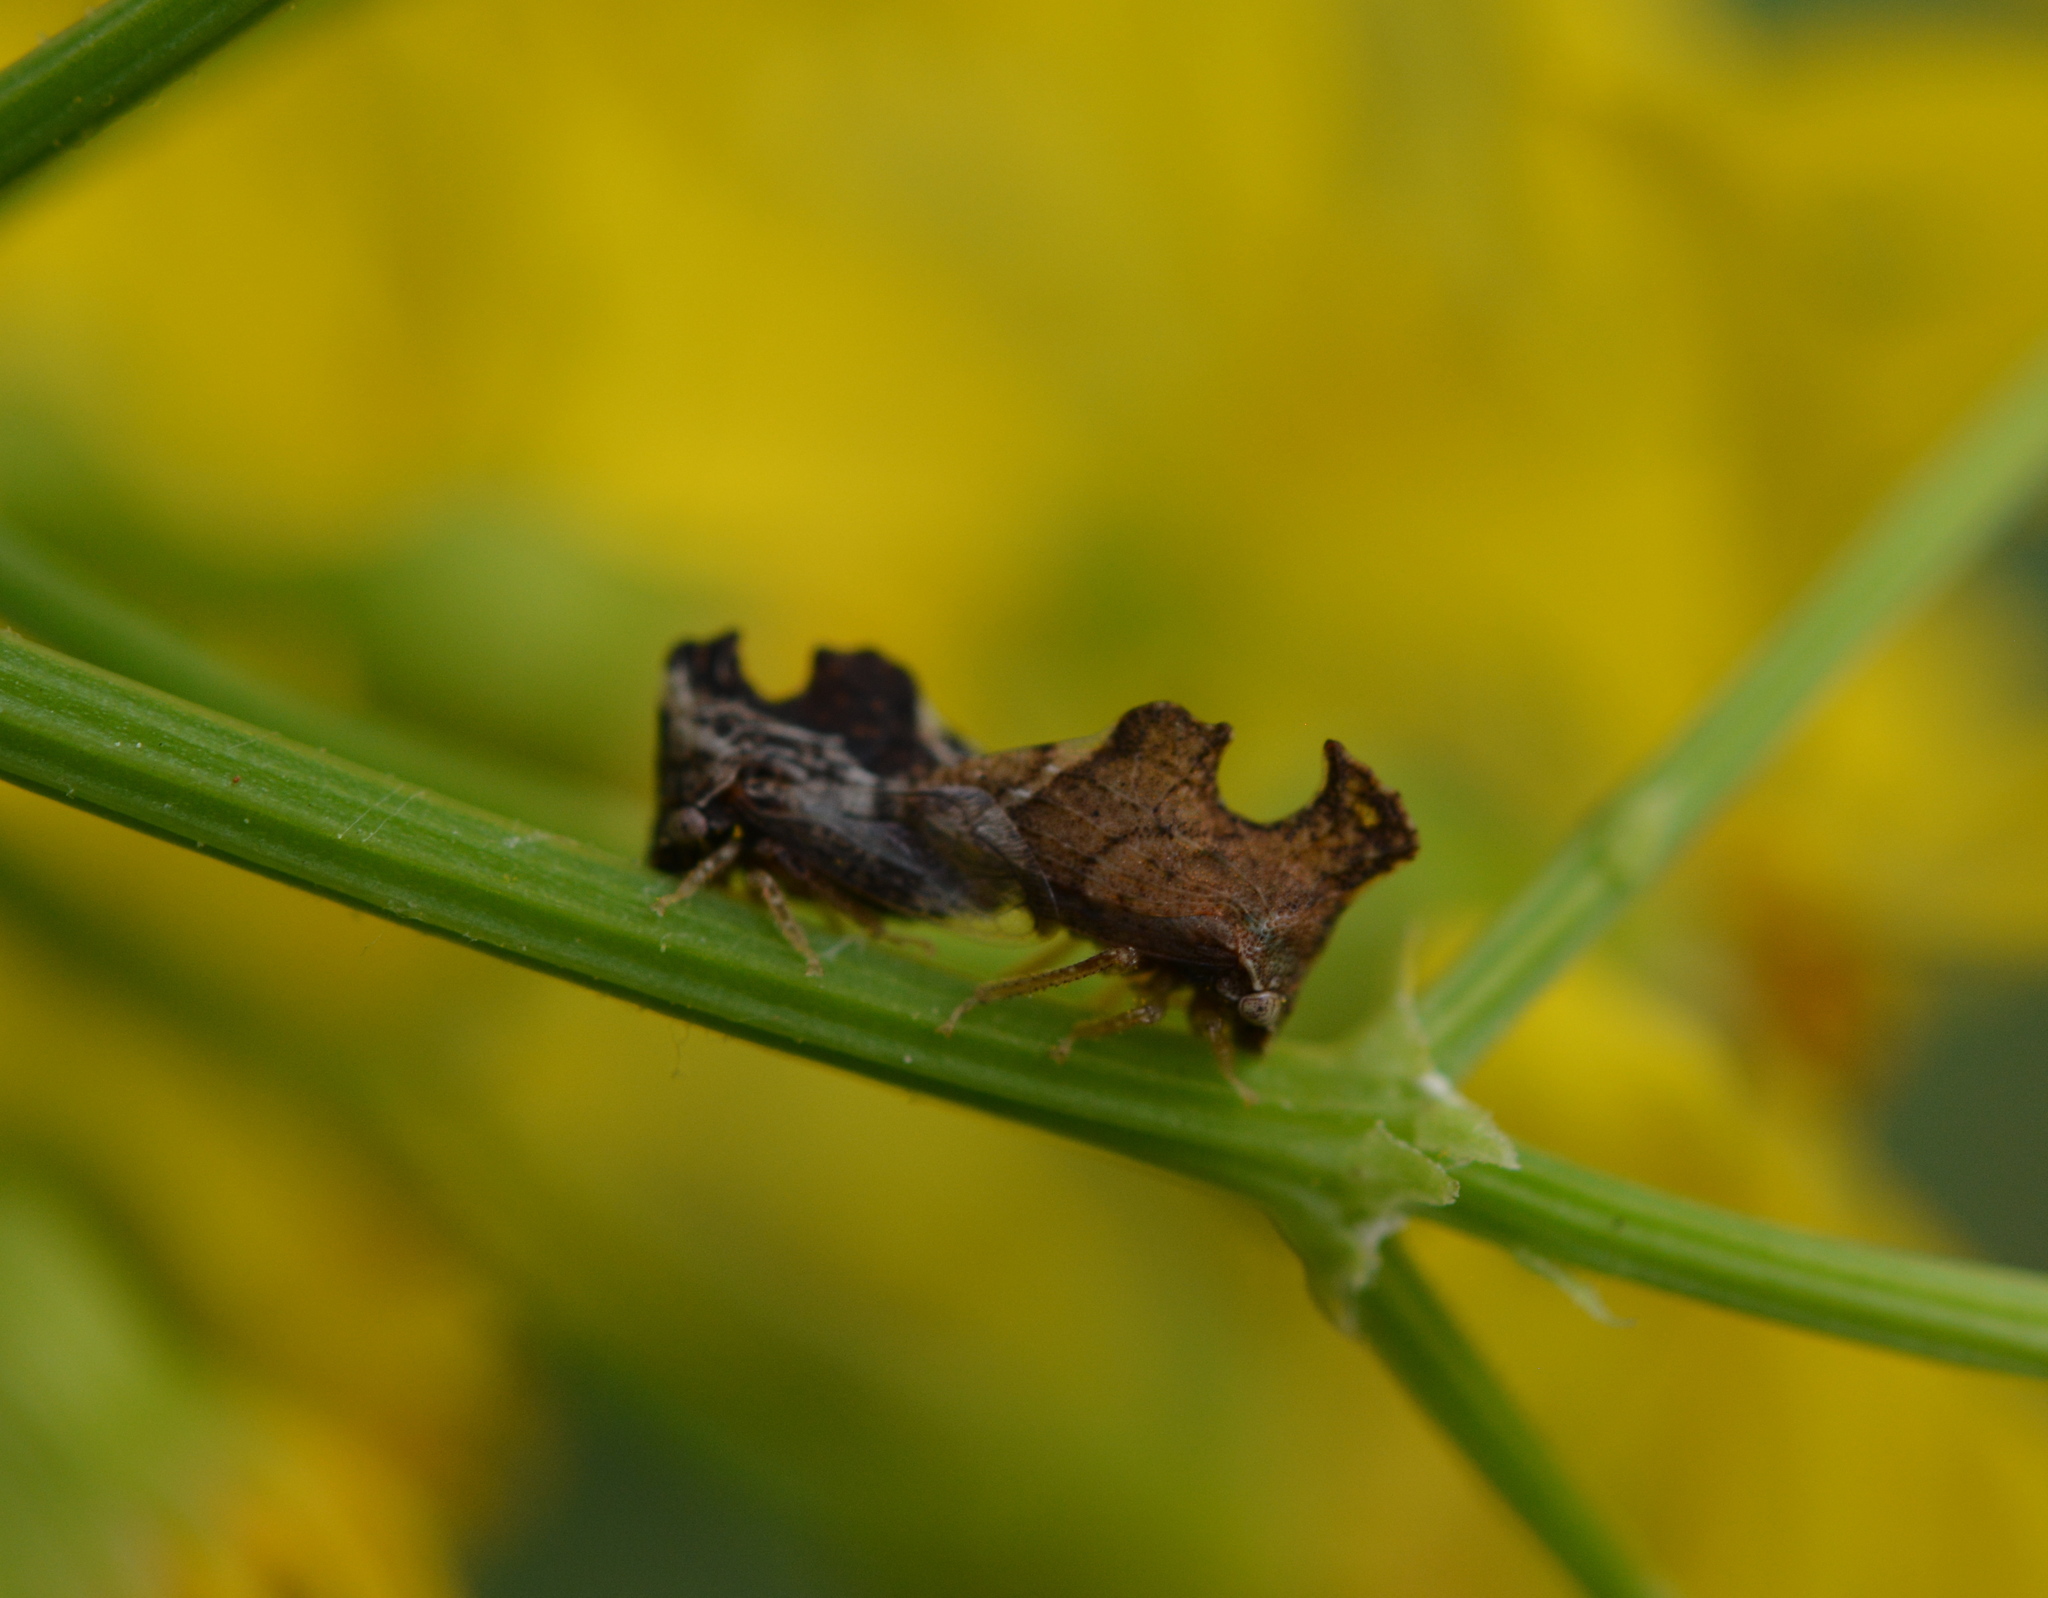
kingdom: Animalia
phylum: Arthropoda
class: Insecta
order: Hemiptera
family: Membracidae
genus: Entylia
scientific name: Entylia carinata
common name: Keeled treehopper
